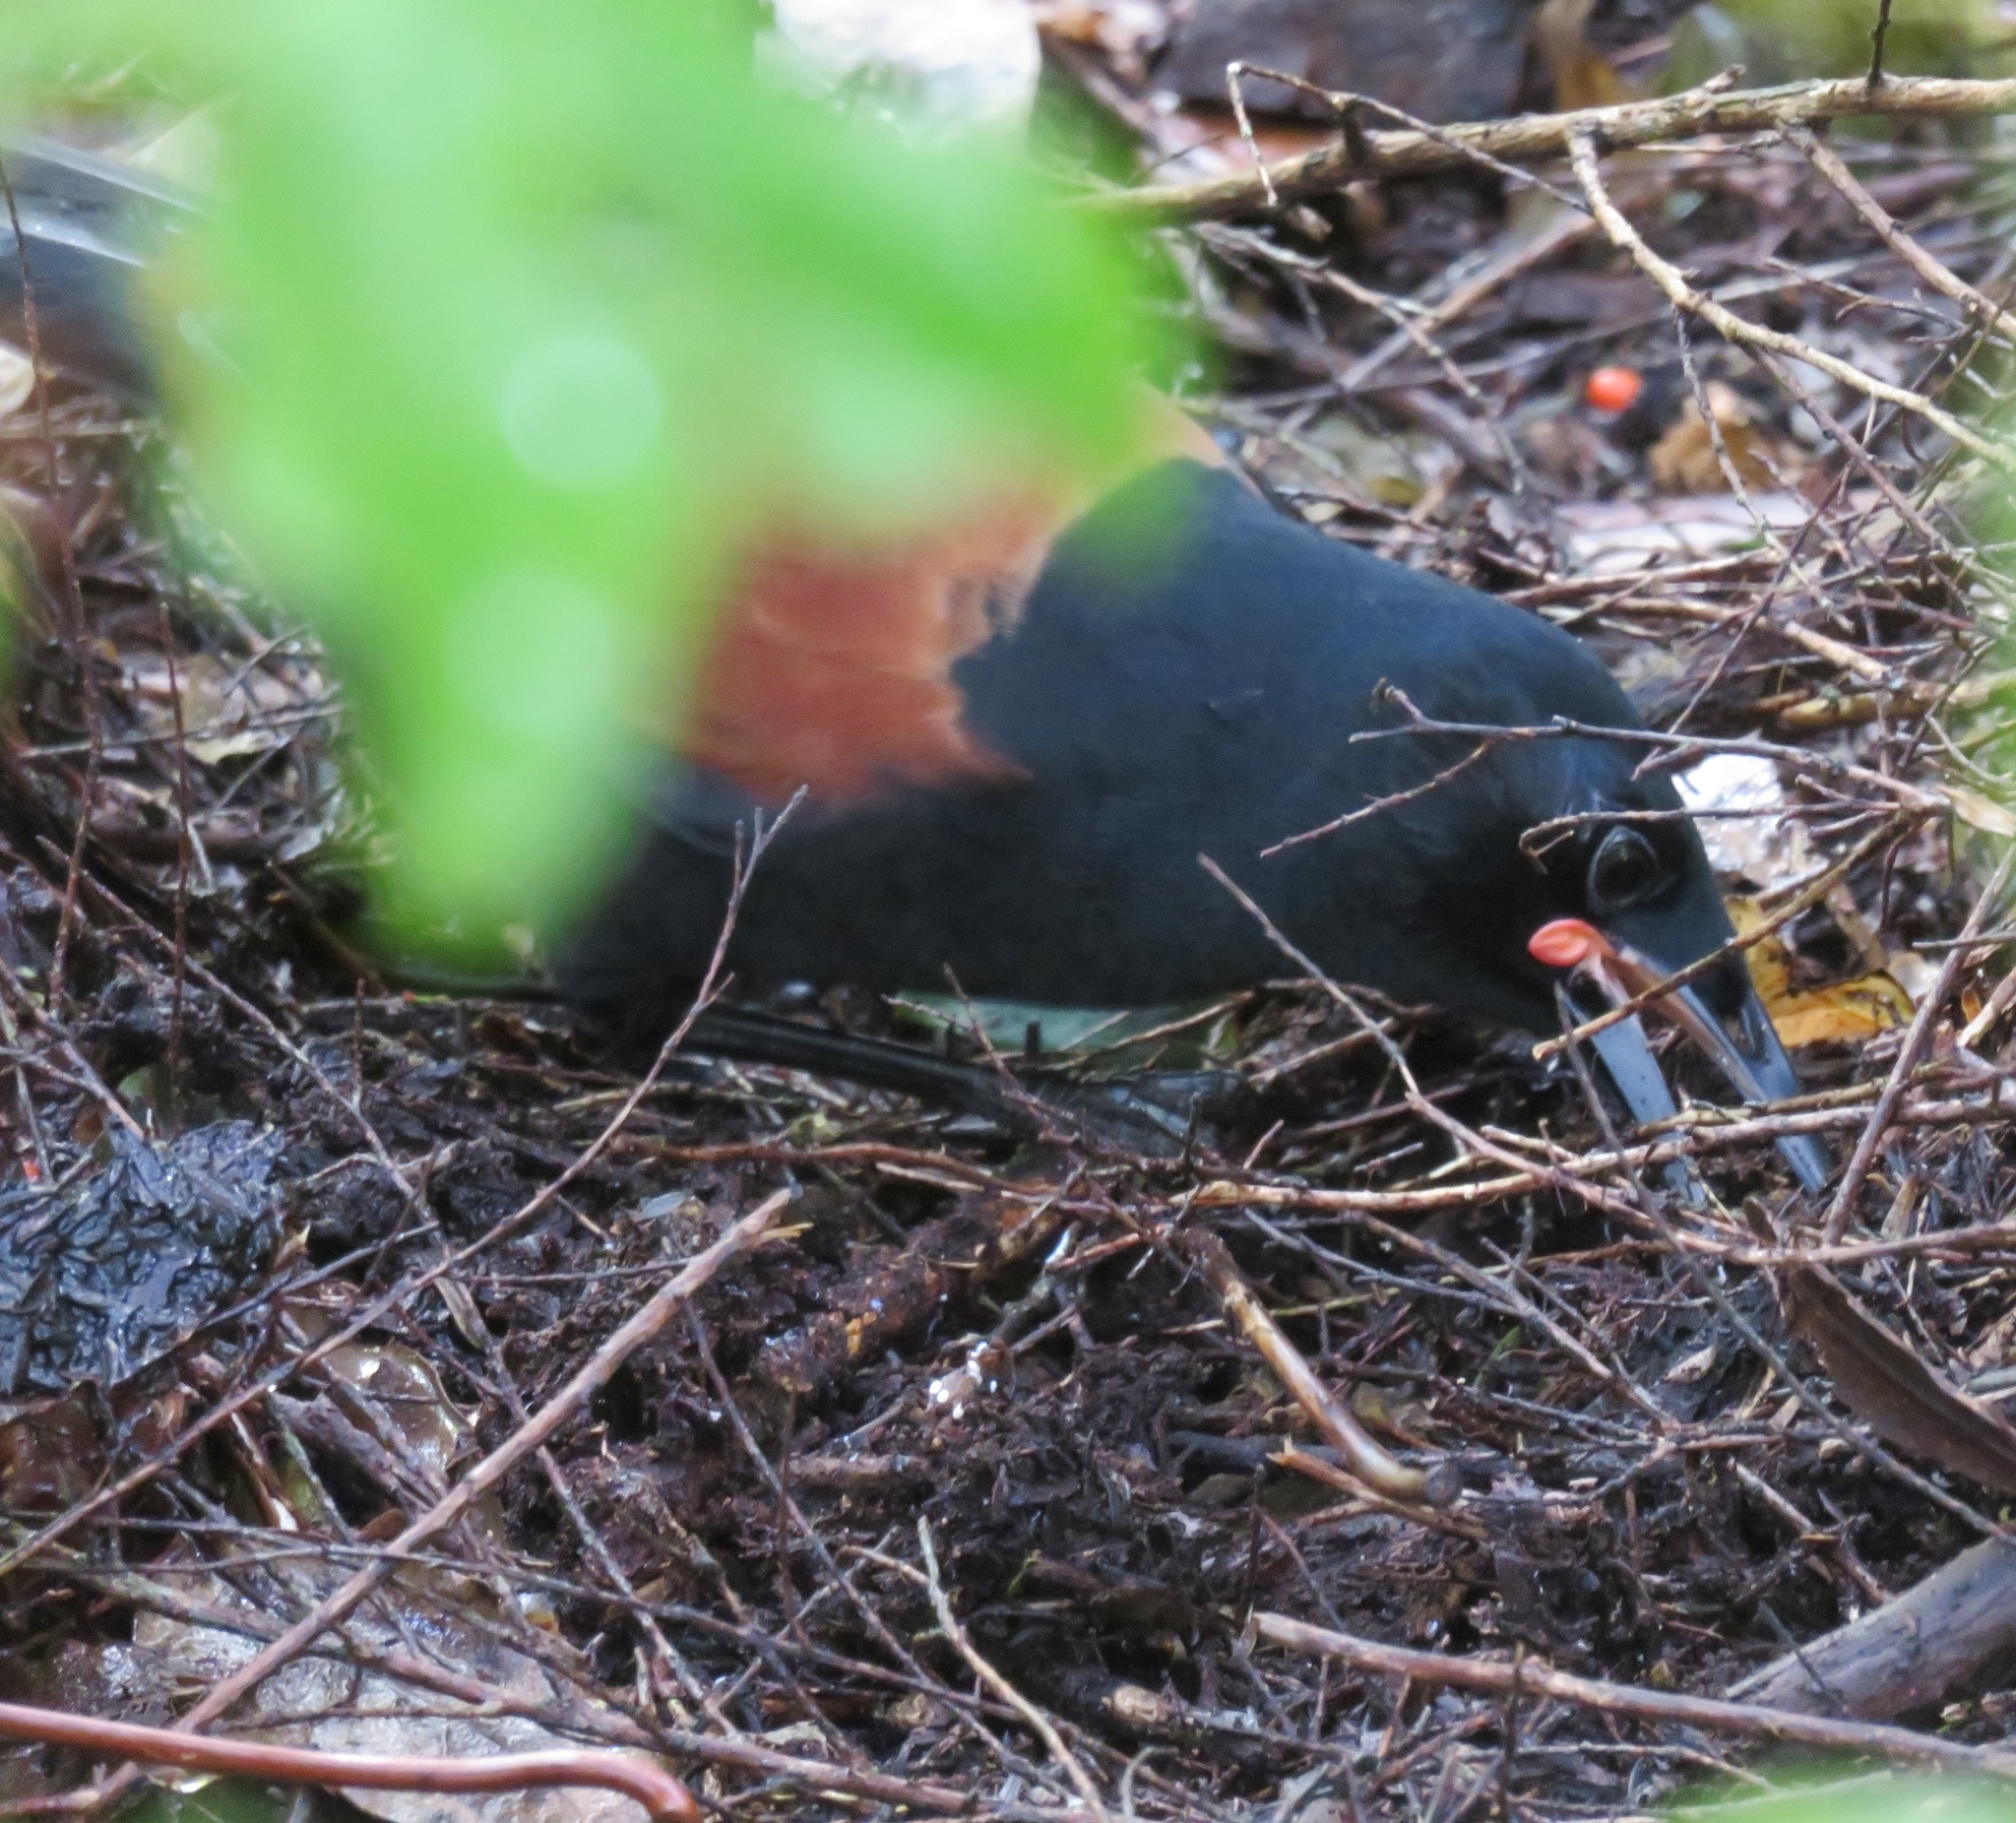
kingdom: Animalia
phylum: Chordata
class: Aves
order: Passeriformes
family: Callaeatidae
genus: Philesturnus
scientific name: Philesturnus carunculatus
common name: South island saddleback
